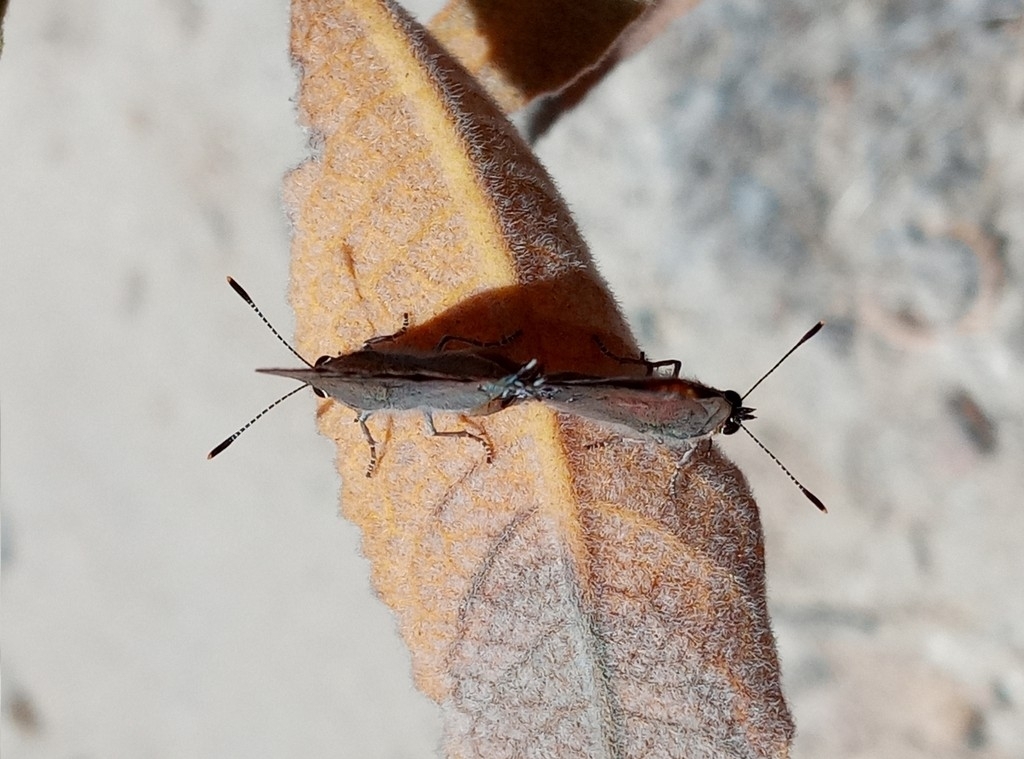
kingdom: Animalia
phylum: Arthropoda
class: Insecta
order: Lepidoptera
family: Lycaenidae
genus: Strymon
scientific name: Strymon saepium
